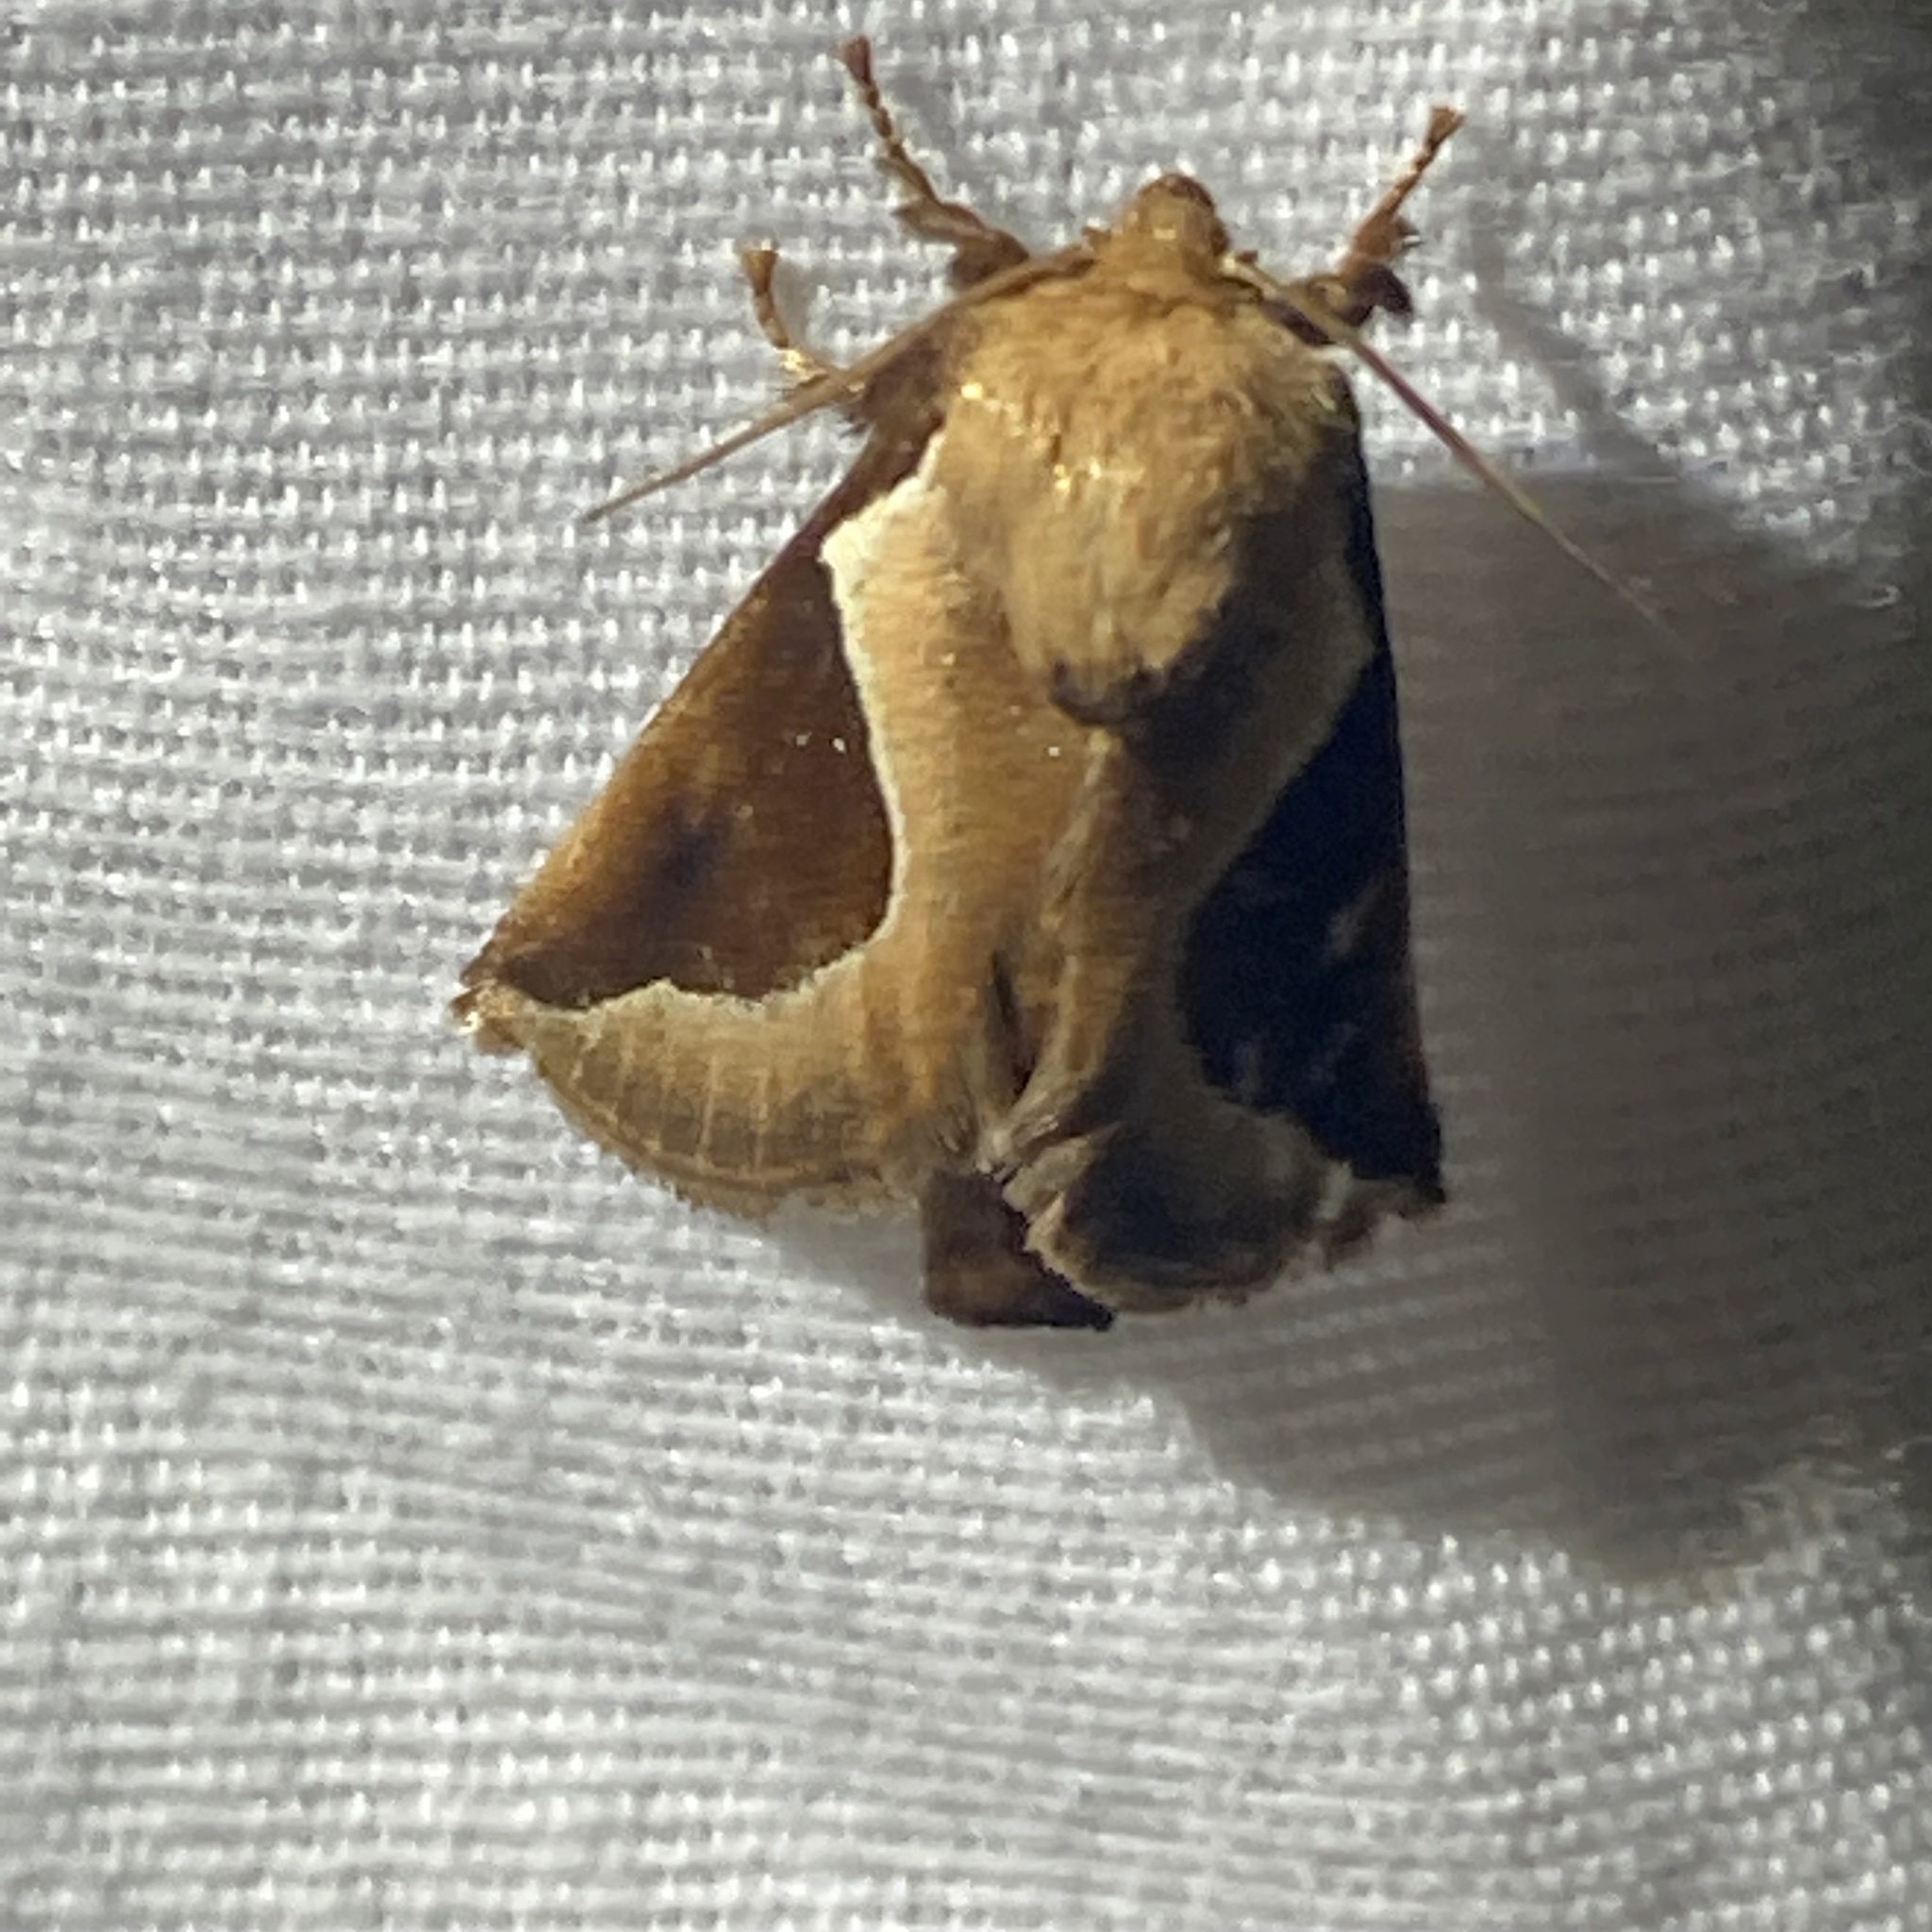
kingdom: Animalia
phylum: Arthropoda
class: Insecta
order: Lepidoptera
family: Limacodidae
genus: Prolimacodes
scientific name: Prolimacodes badia
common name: Skiff moth
